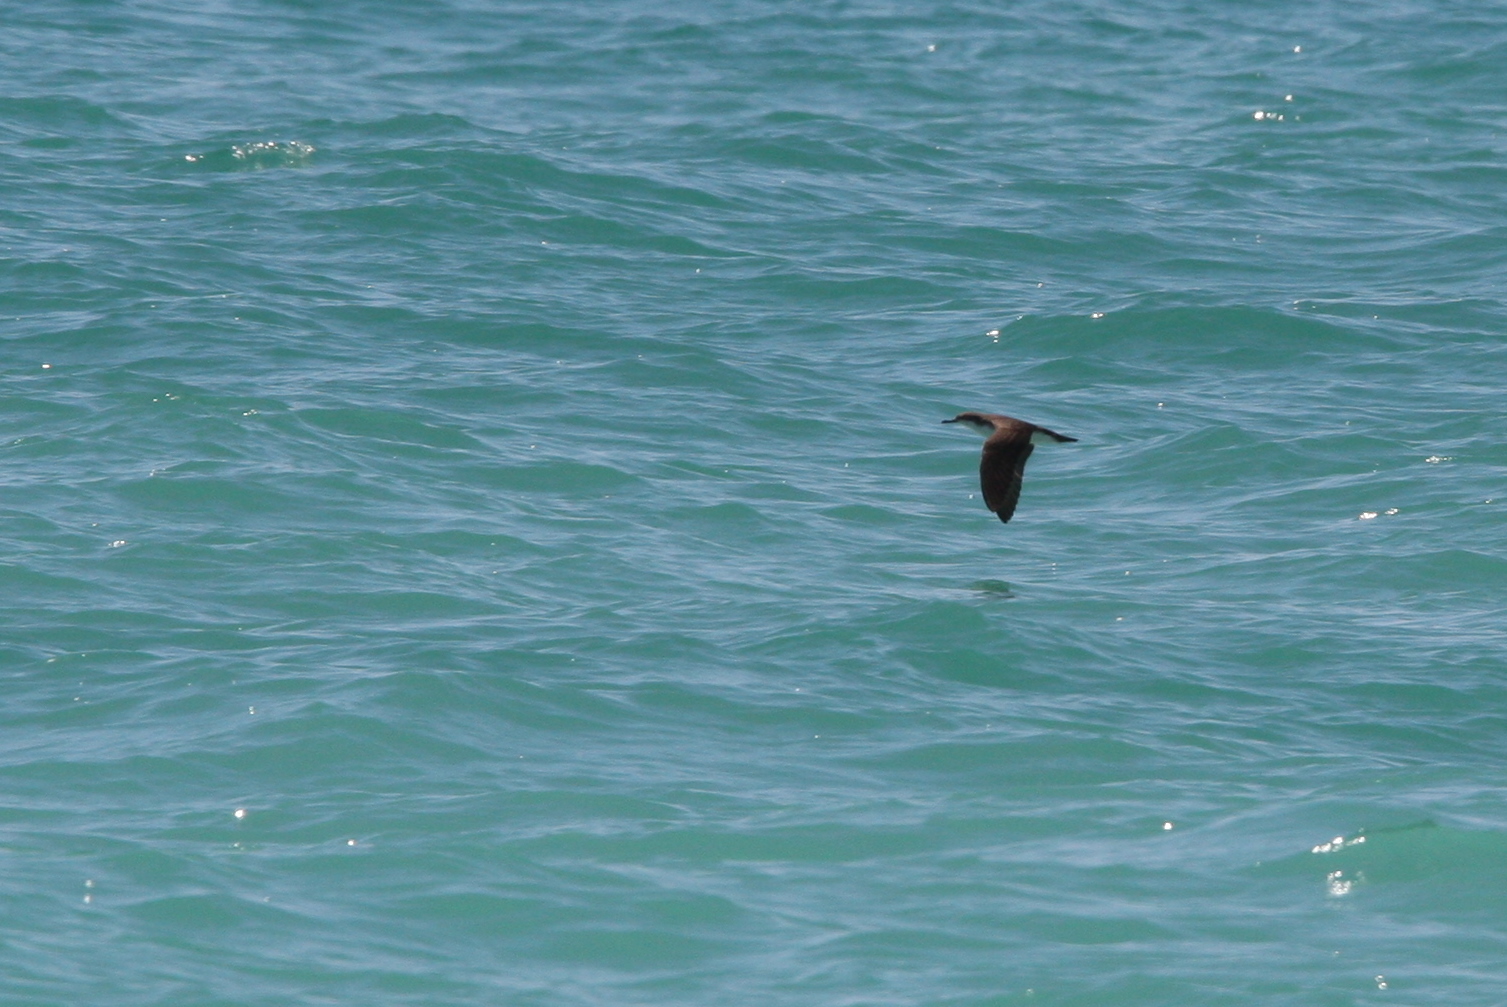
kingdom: Animalia
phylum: Chordata
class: Aves
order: Procellariiformes
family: Procellariidae
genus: Puffinus
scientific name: Puffinus persicus
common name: Persian shearwater
